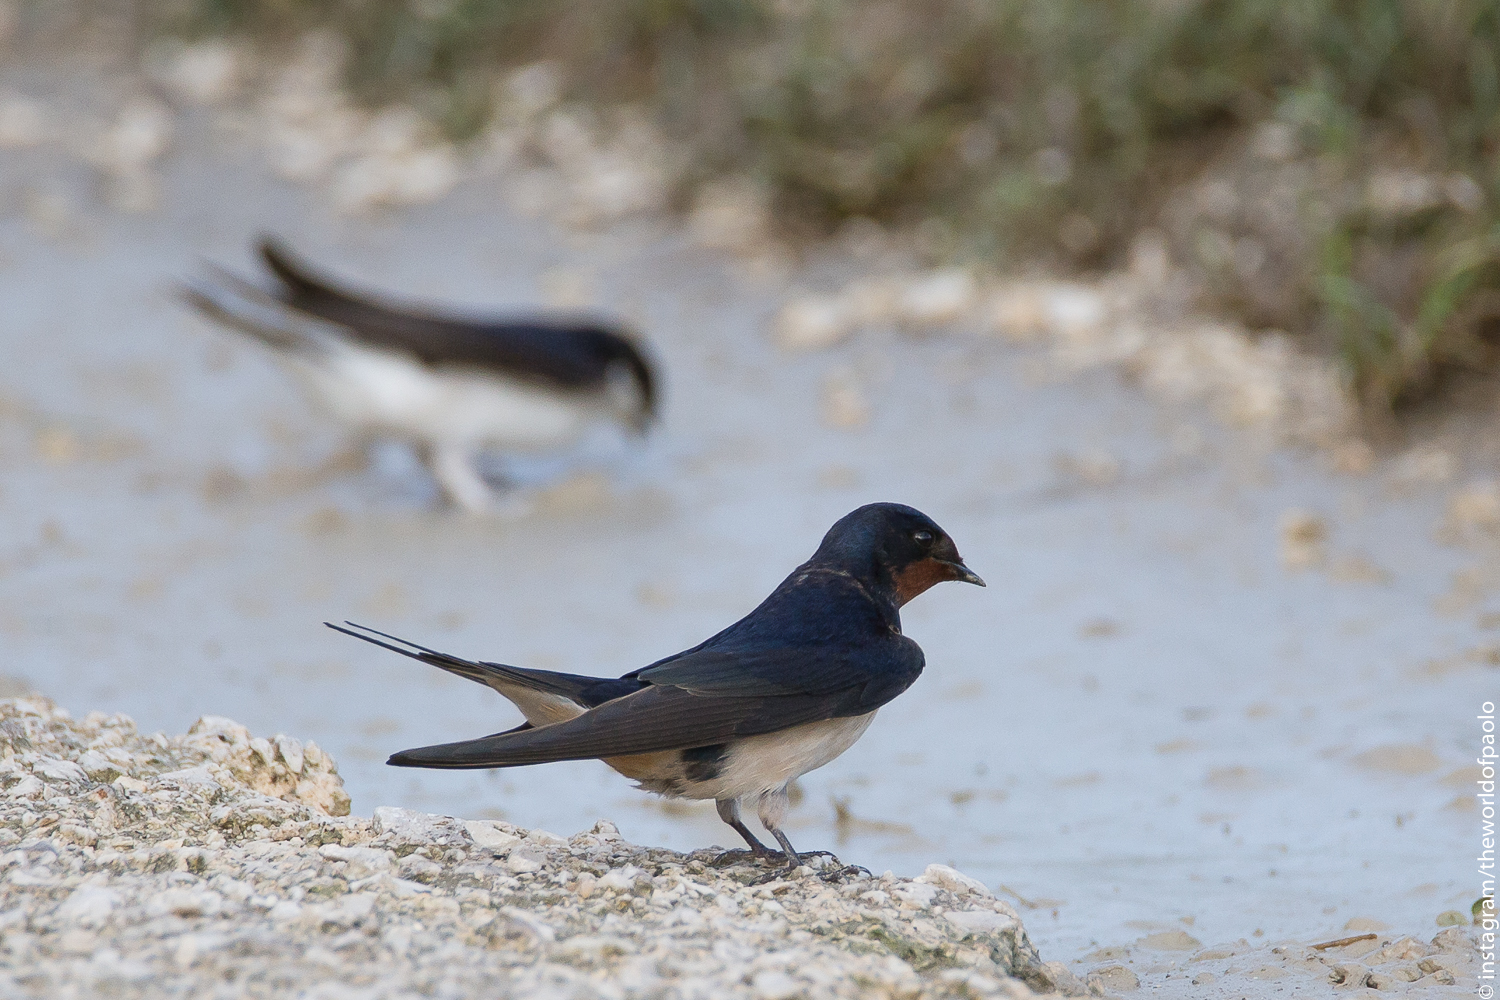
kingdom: Animalia
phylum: Chordata
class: Aves
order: Passeriformes
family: Hirundinidae
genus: Hirundo
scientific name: Hirundo rustica
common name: Barn swallow
